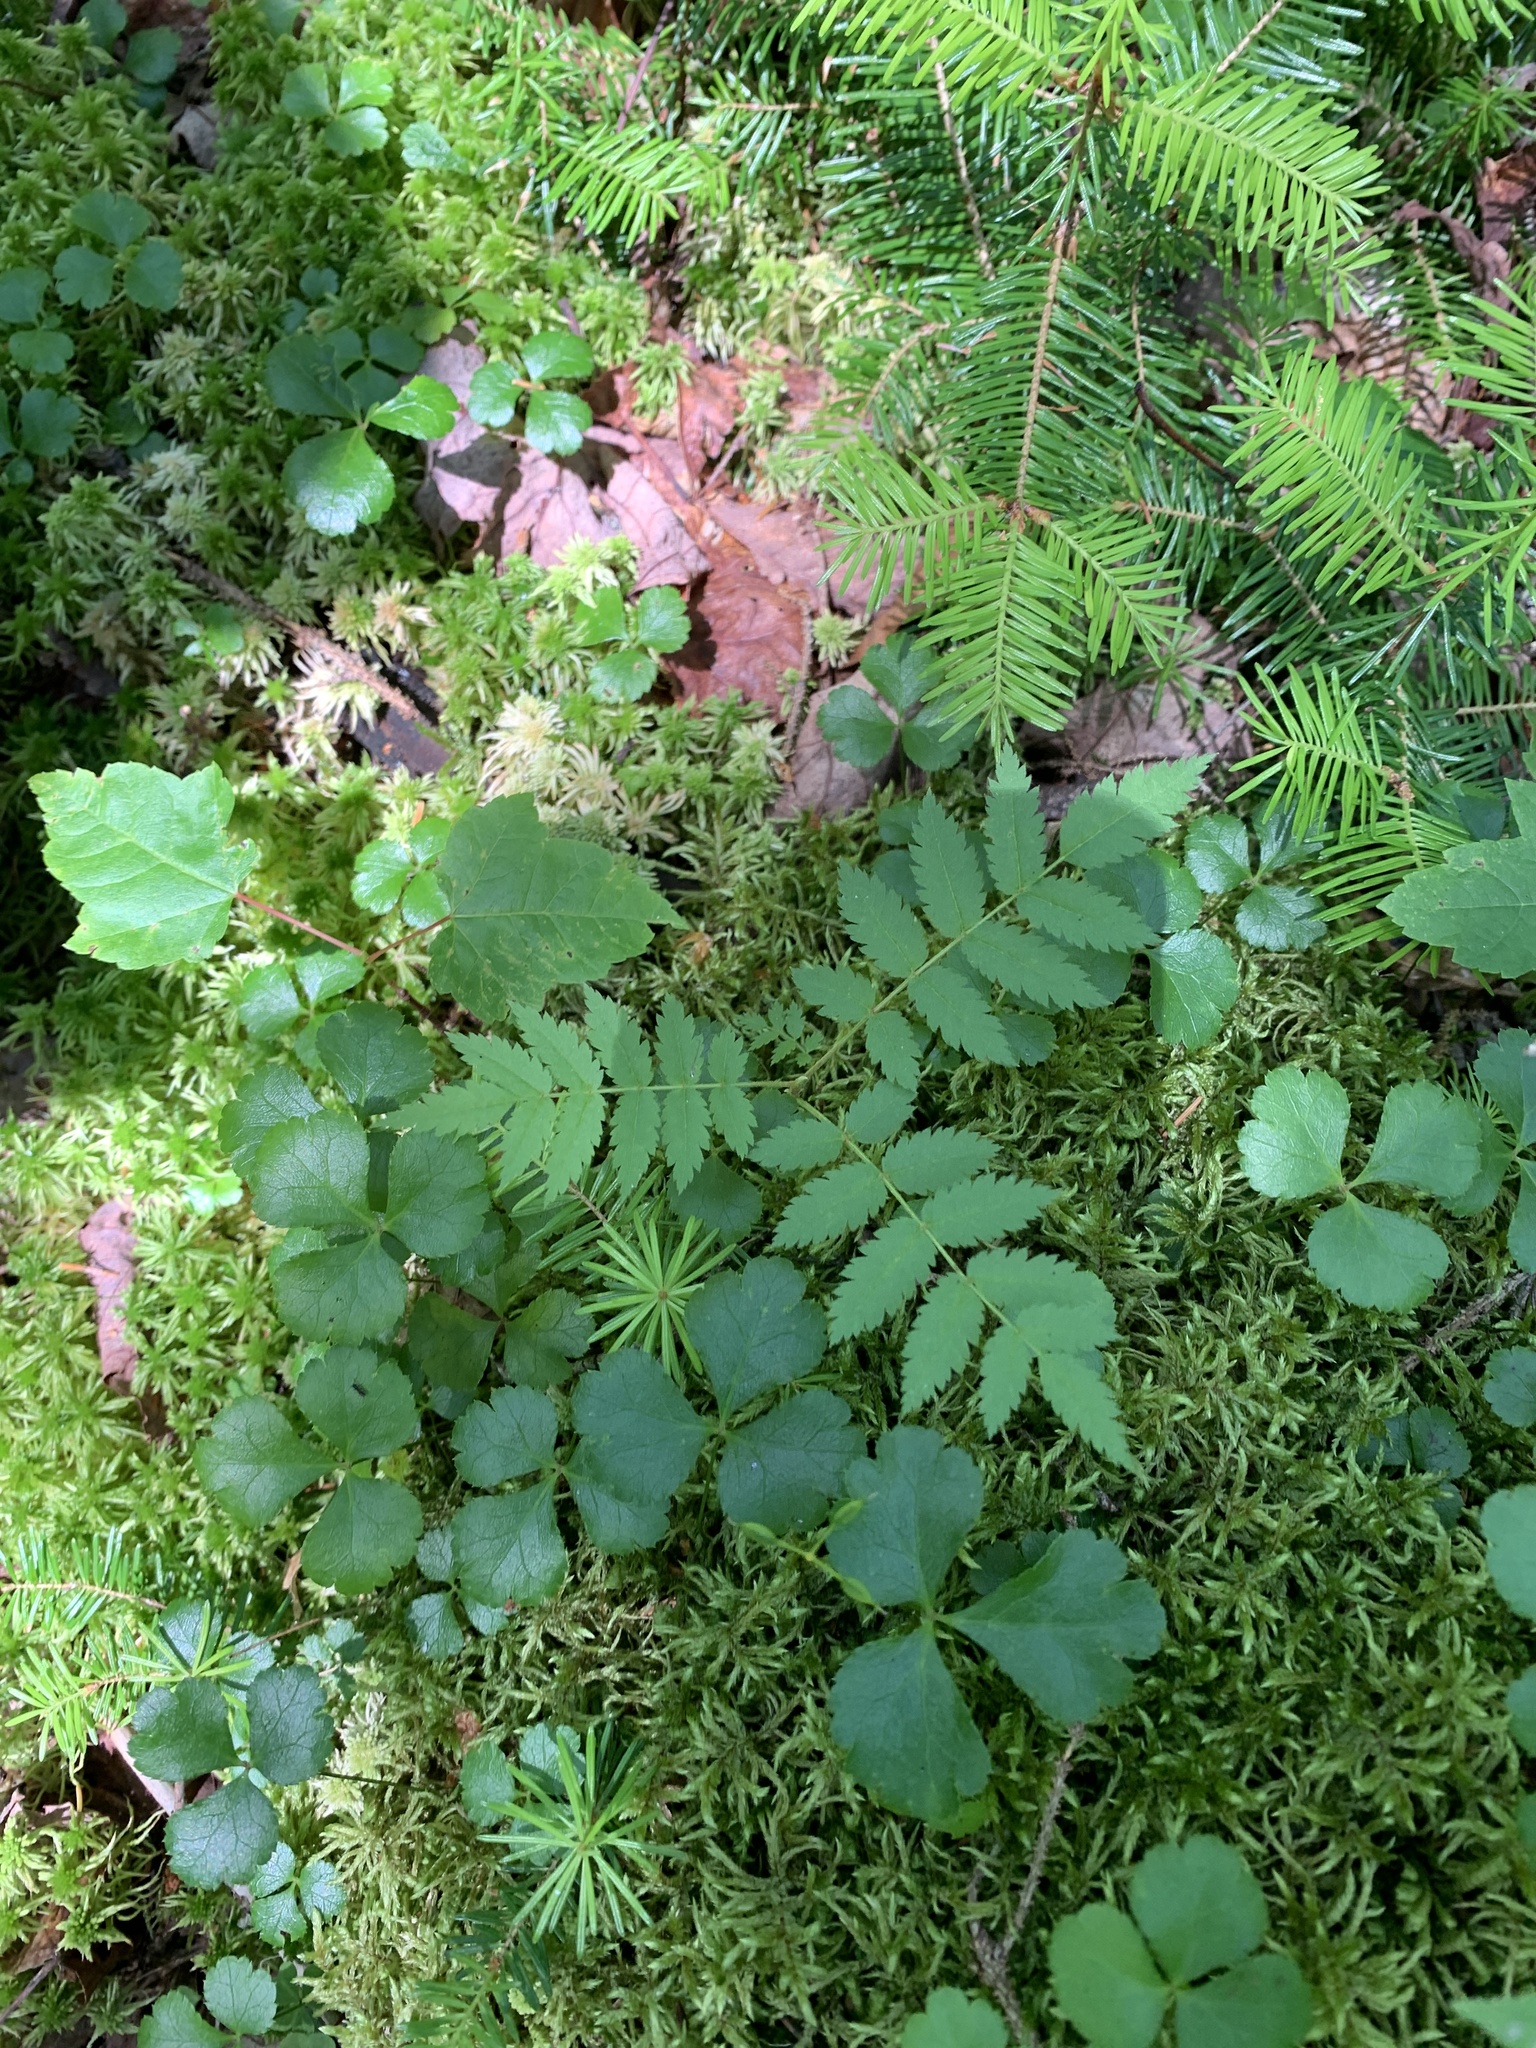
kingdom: Plantae
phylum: Tracheophyta
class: Magnoliopsida
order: Rosales
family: Rosaceae
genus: Sorbus
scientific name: Sorbus americana
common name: American mountain-ash
